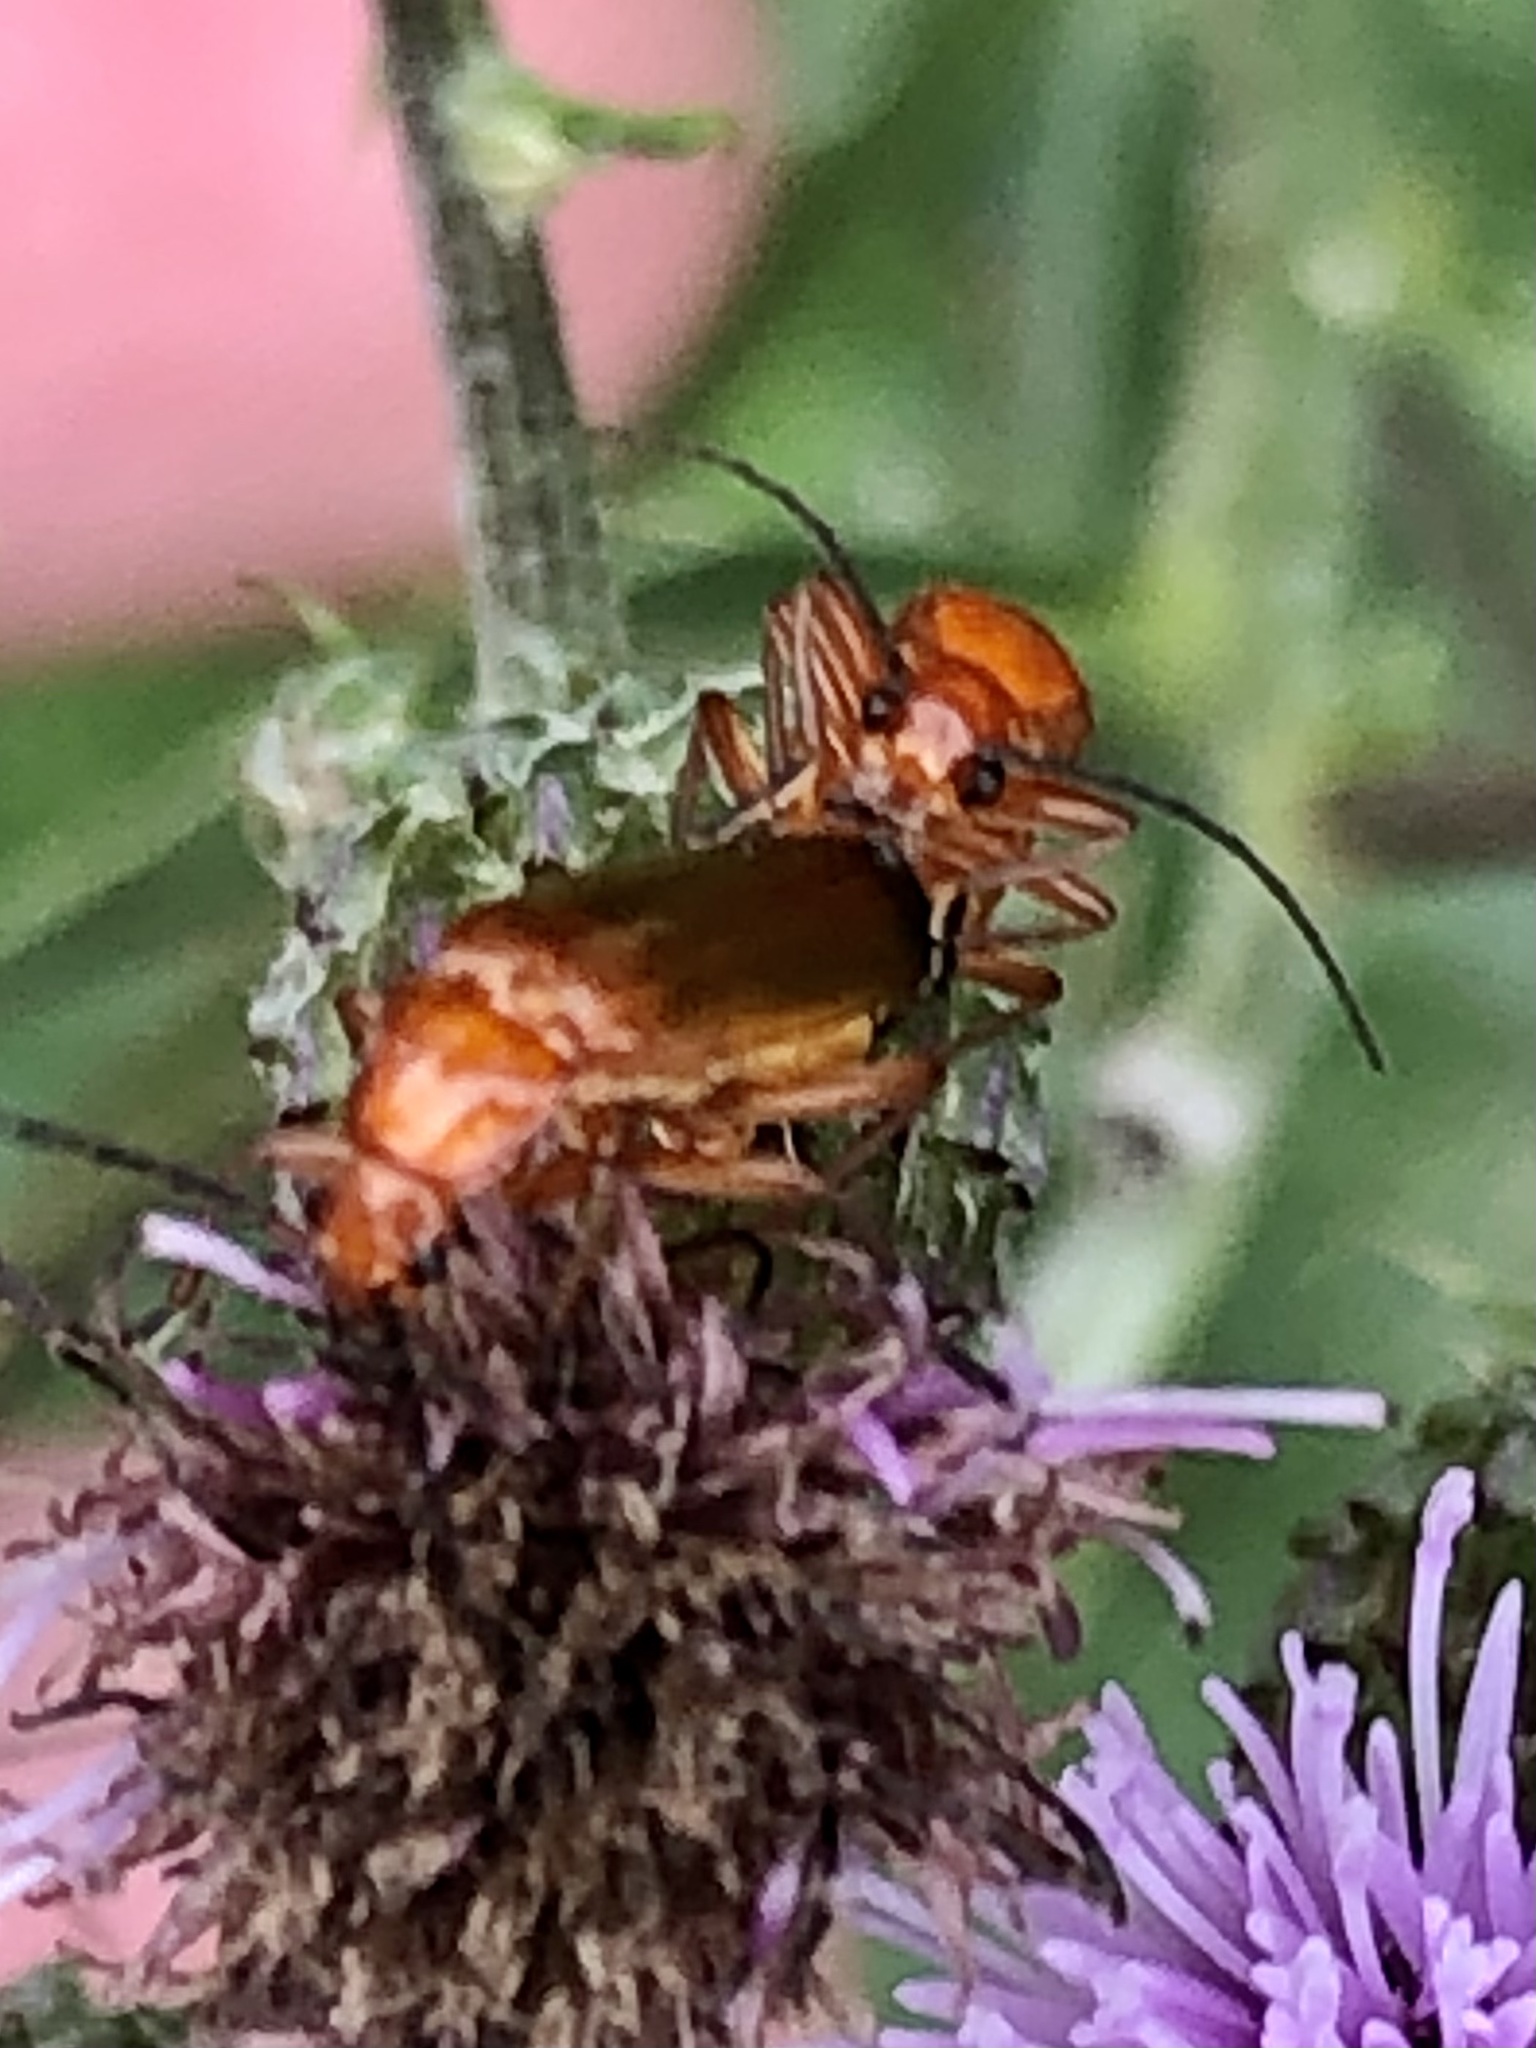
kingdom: Animalia
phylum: Arthropoda
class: Insecta
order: Coleoptera
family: Cantharidae
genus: Rhagonycha
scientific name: Rhagonycha fulva
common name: Common red soldier beetle
